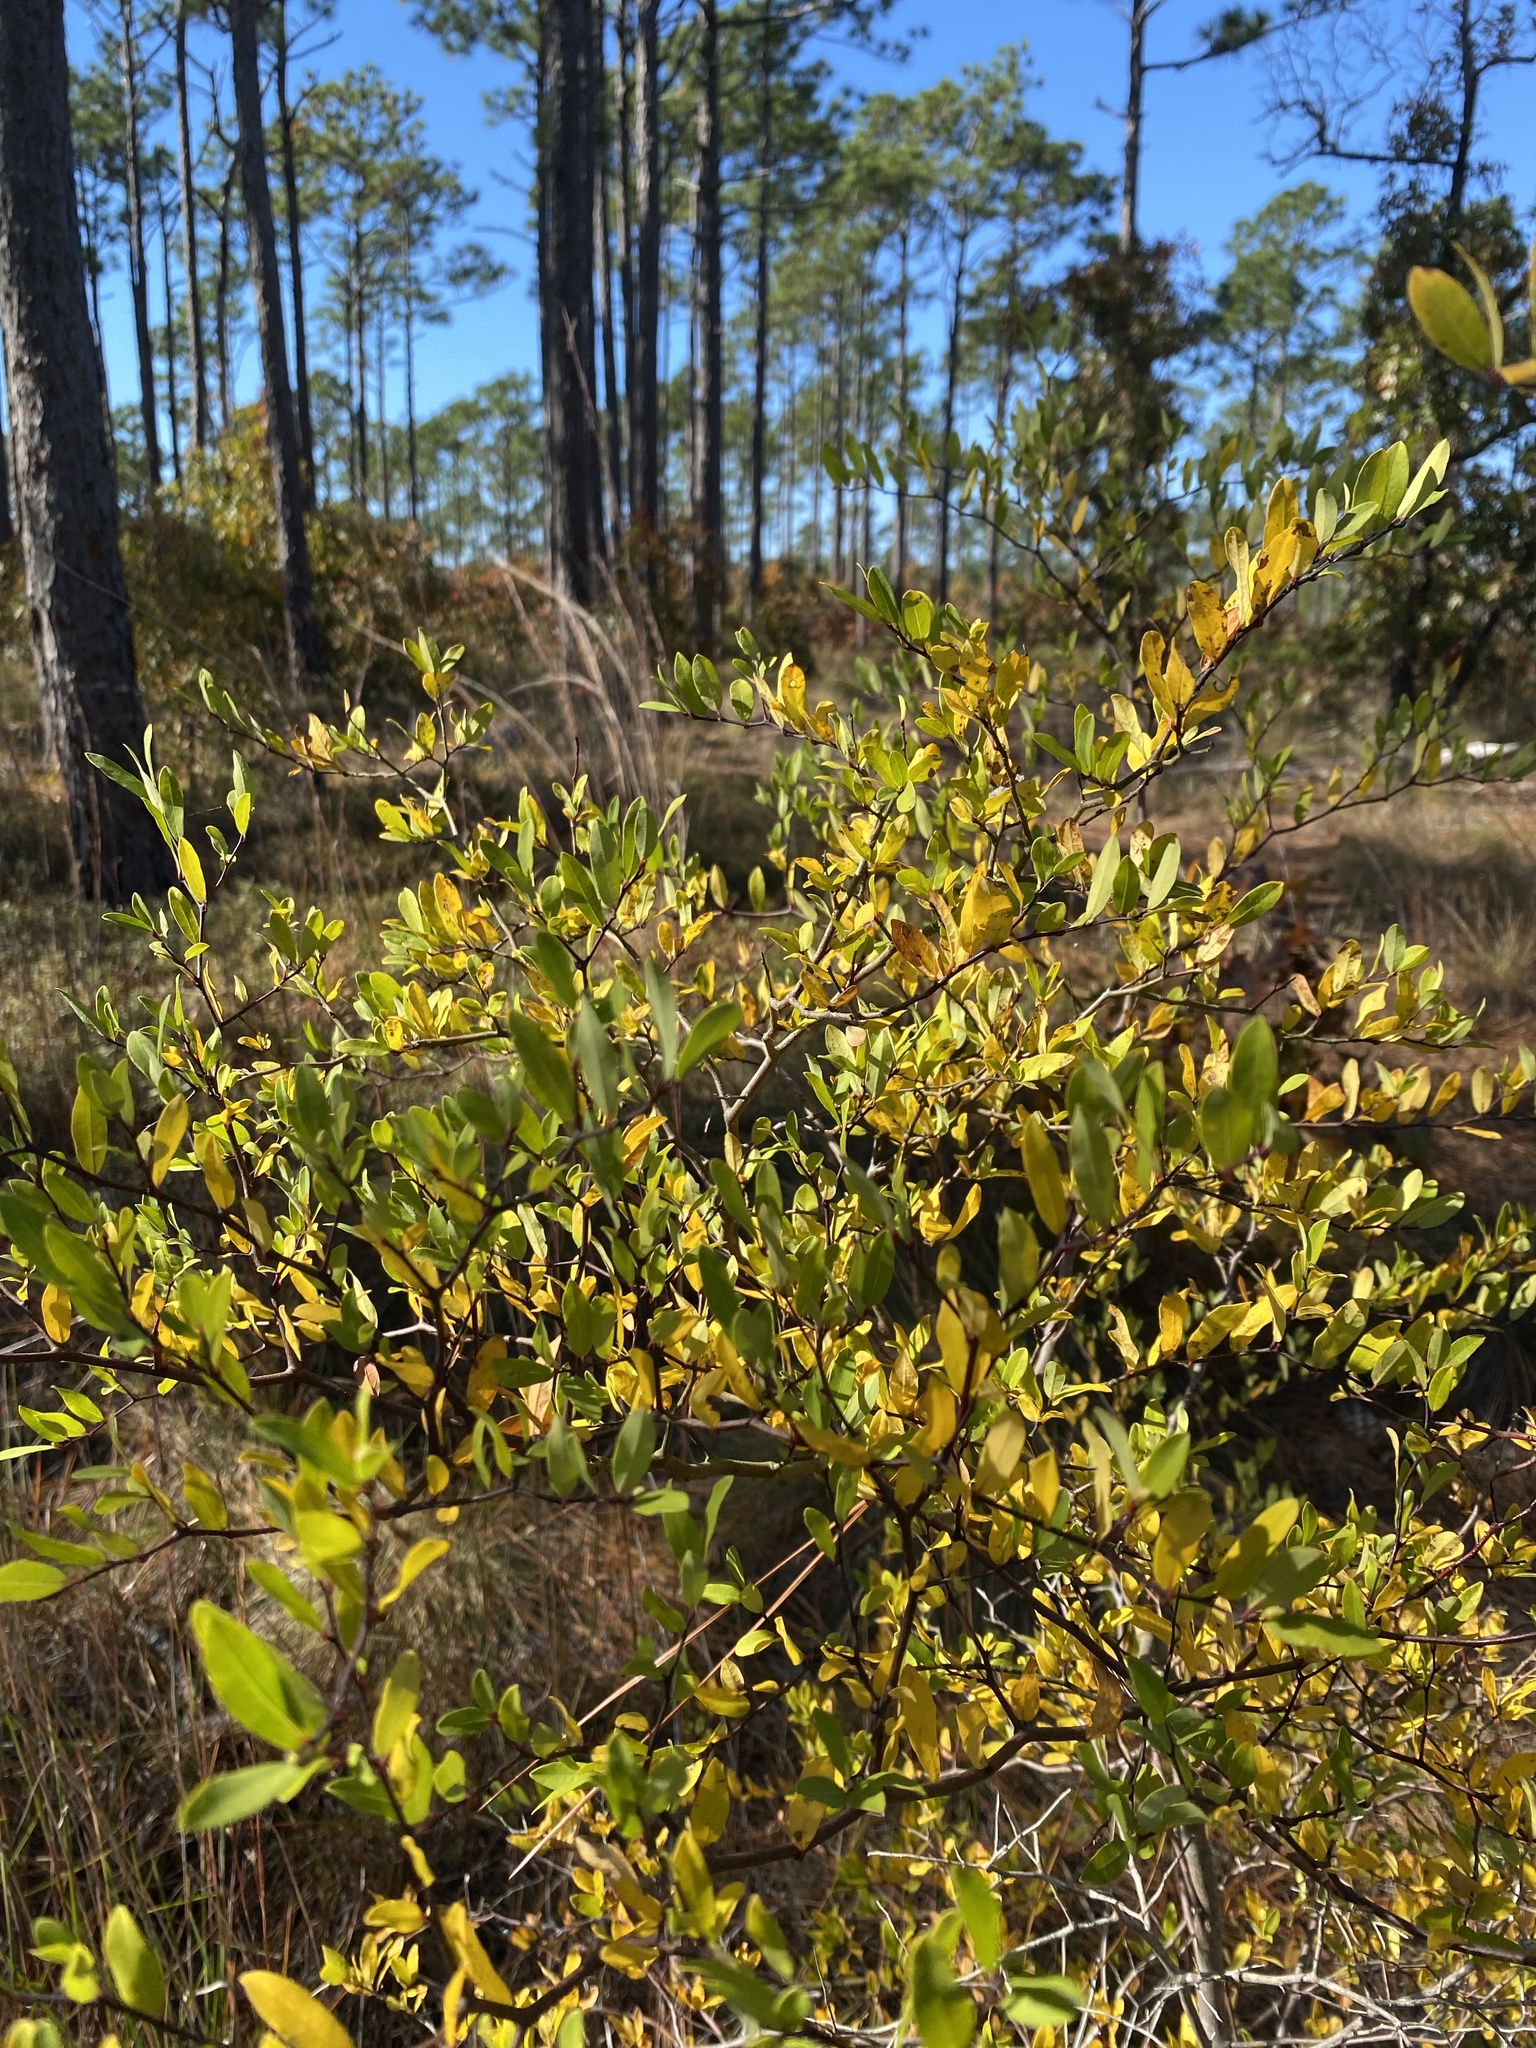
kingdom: Plantae
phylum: Tracheophyta
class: Magnoliopsida
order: Laurales
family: Lauraceae
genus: Litsea
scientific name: Litsea aestivalis
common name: Pondspice
